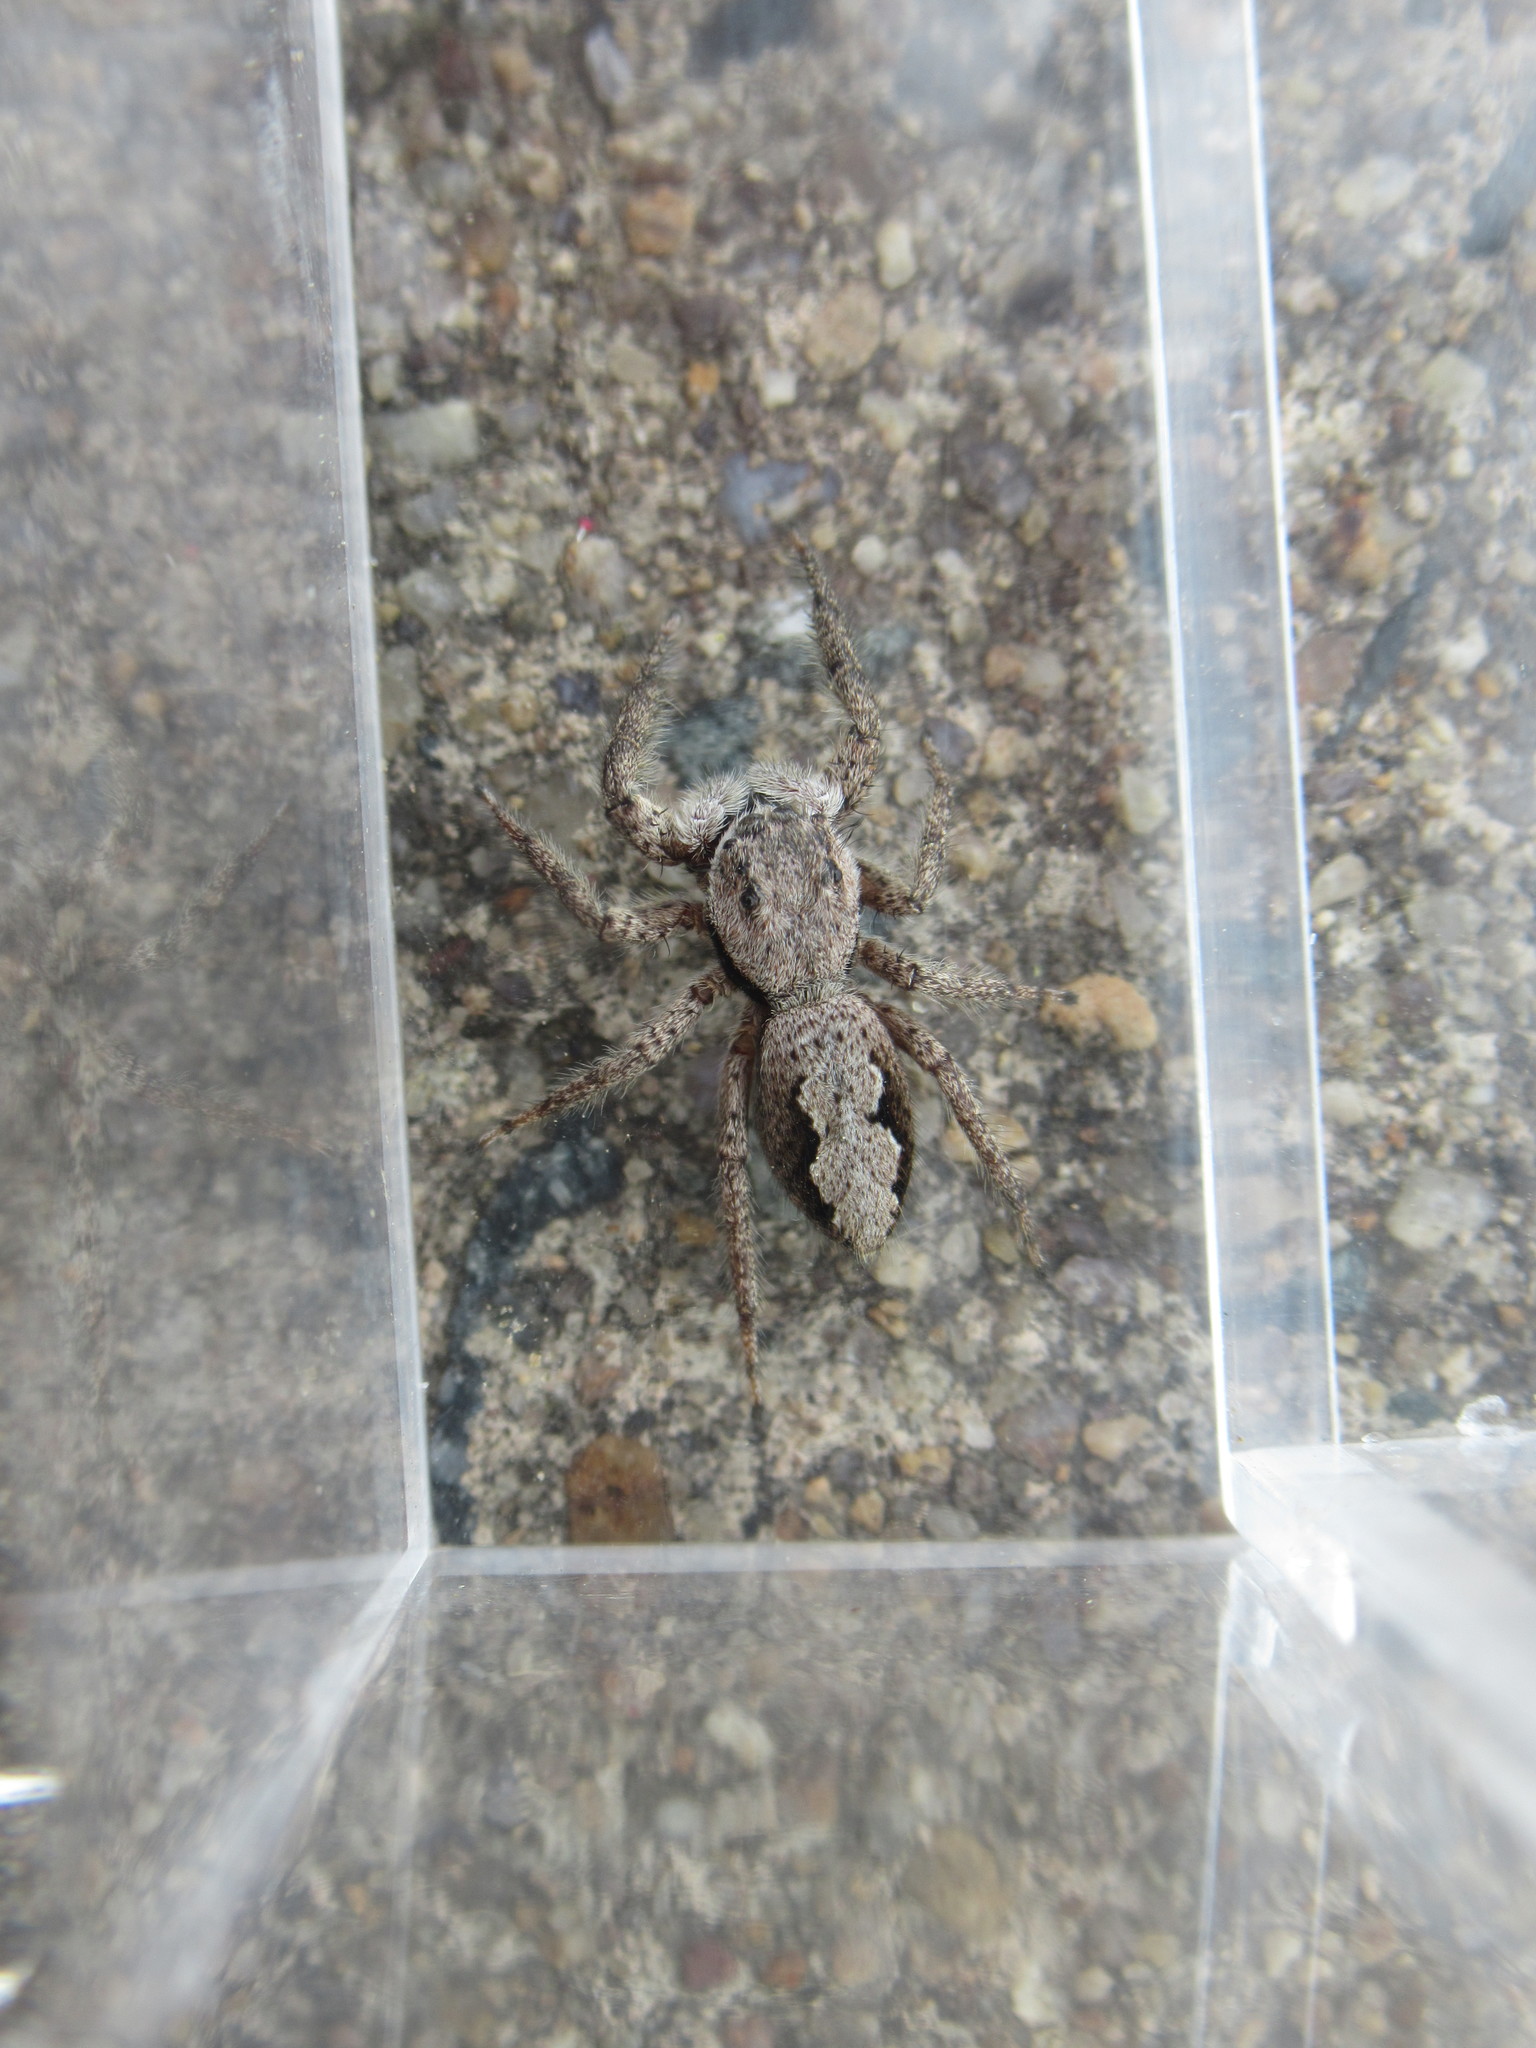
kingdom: Animalia
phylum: Arthropoda
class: Arachnida
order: Araneae
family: Salticidae
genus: Platycryptus
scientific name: Platycryptus undatus
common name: Tan jumping spider
